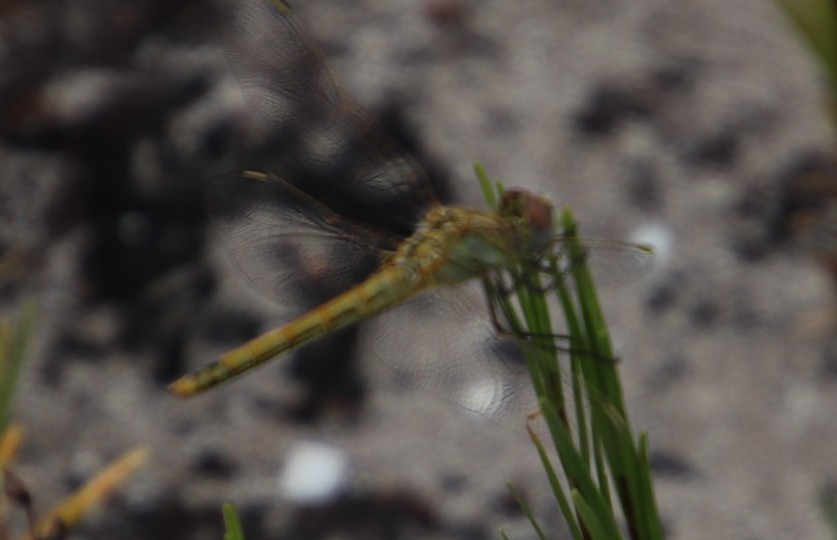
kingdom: Animalia
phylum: Arthropoda
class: Insecta
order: Odonata
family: Libellulidae
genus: Sympetrum
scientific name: Sympetrum fonscolombii
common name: Red-veined darter
